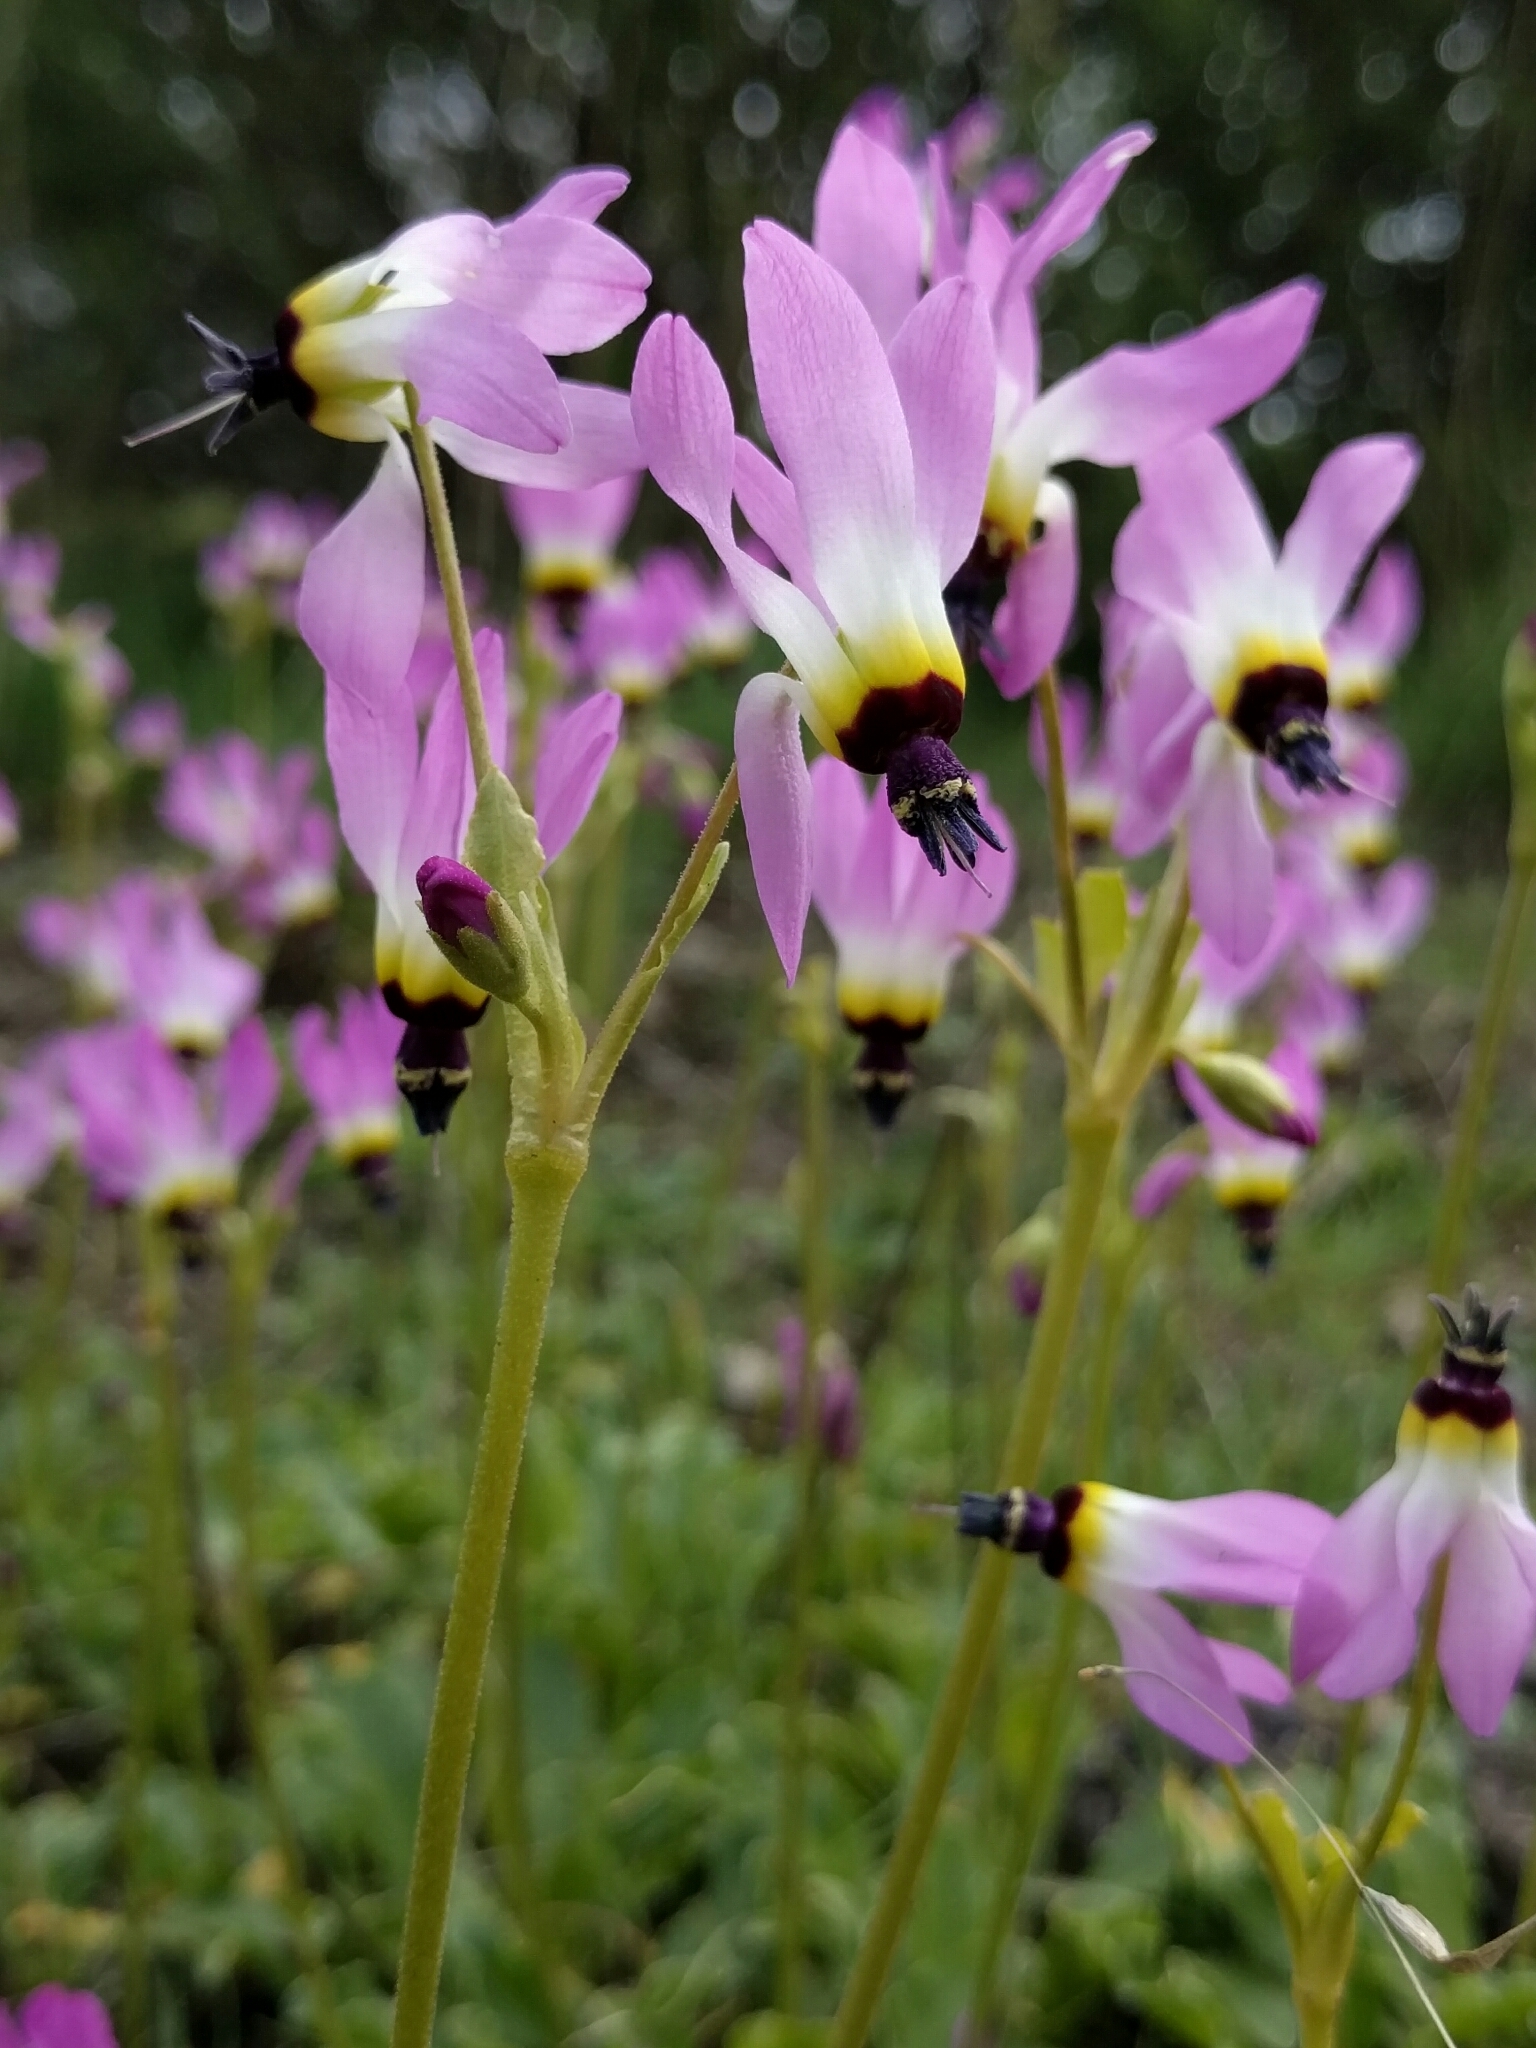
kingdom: Plantae
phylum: Tracheophyta
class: Magnoliopsida
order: Ericales
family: Primulaceae
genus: Dodecatheon
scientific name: Dodecatheon clevelandii
